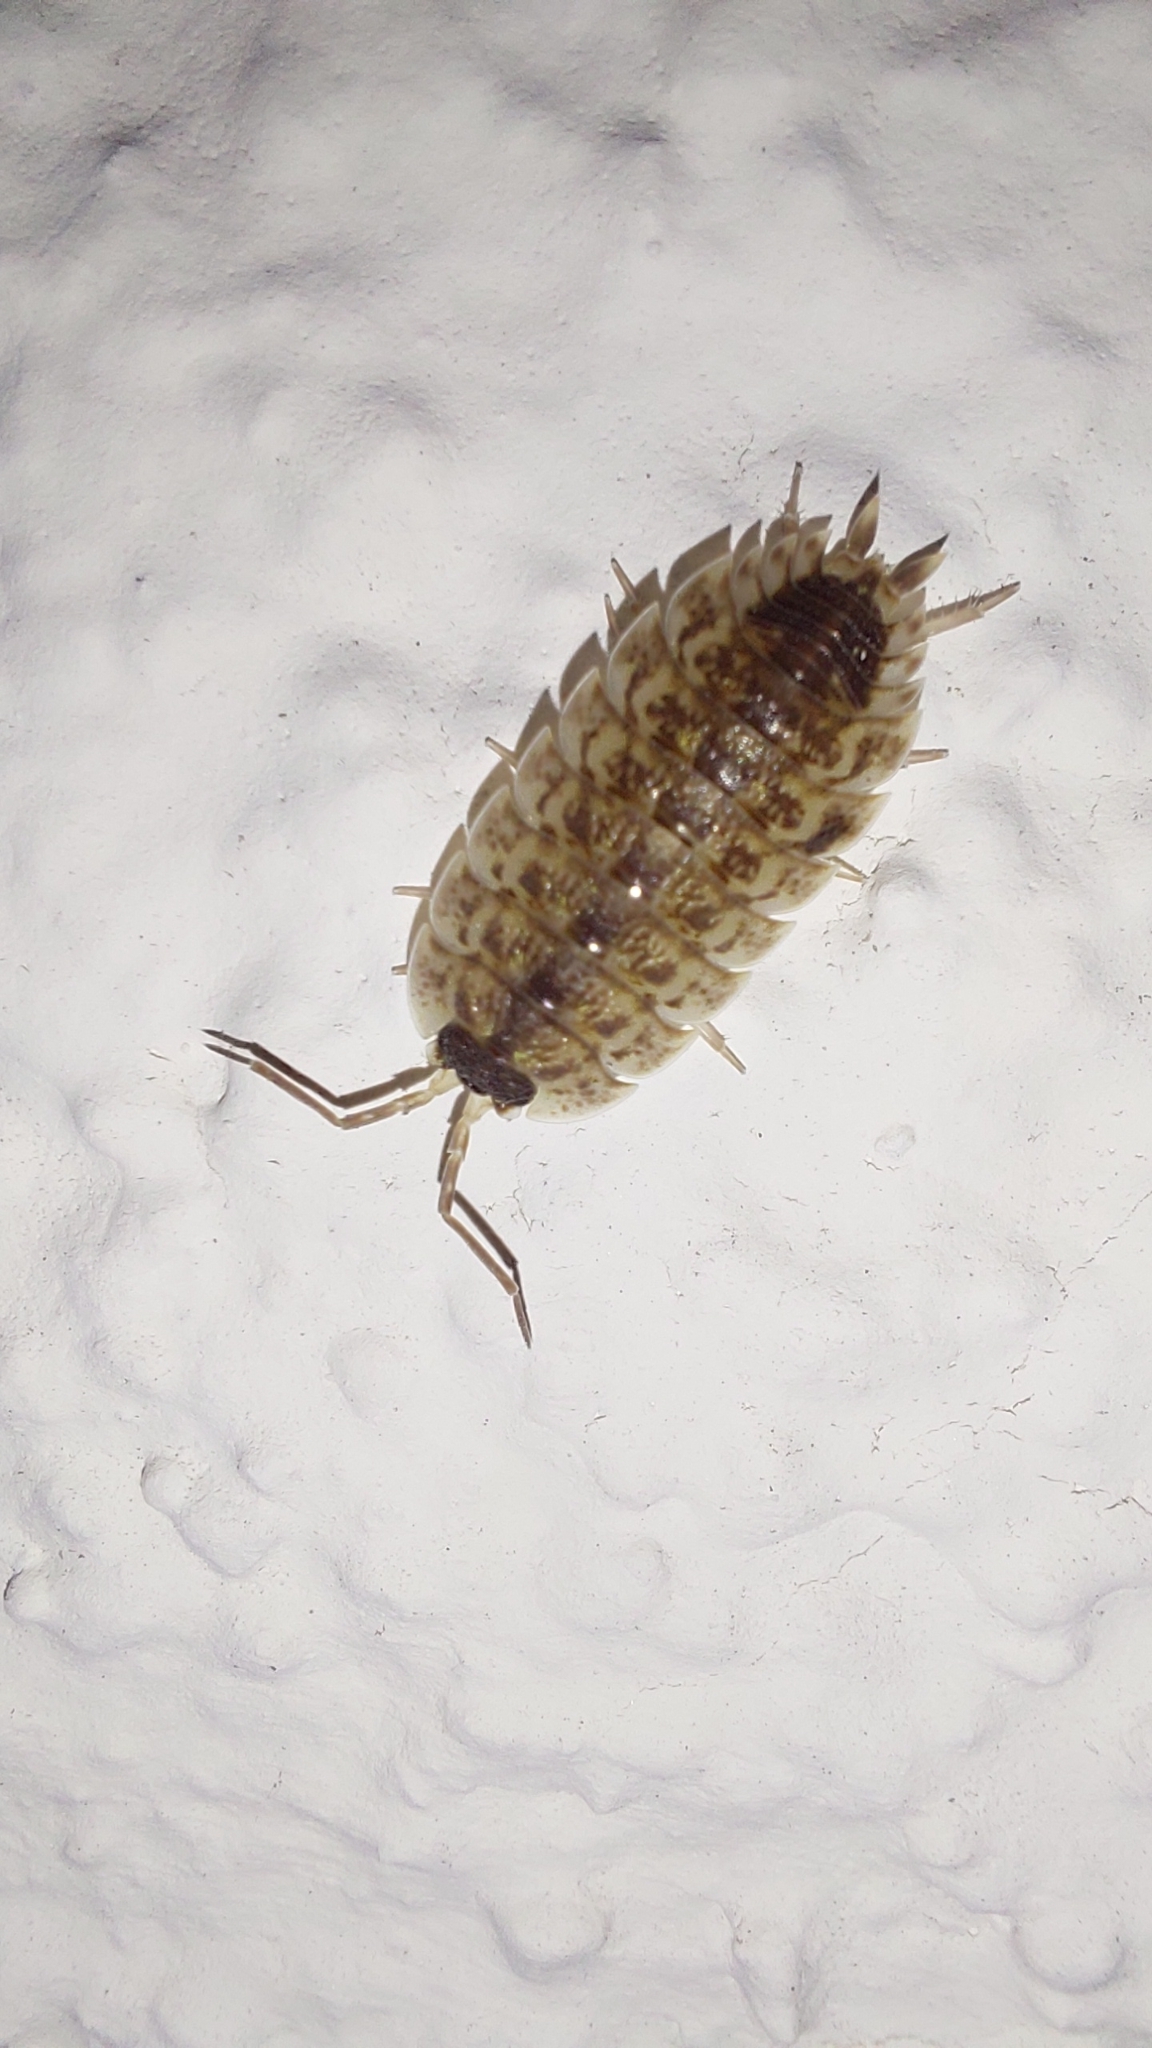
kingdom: Animalia
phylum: Arthropoda
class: Malacostraca
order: Isopoda
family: Porcellionidae
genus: Porcellio
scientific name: Porcellio spinicornis
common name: Painted woodlouse
